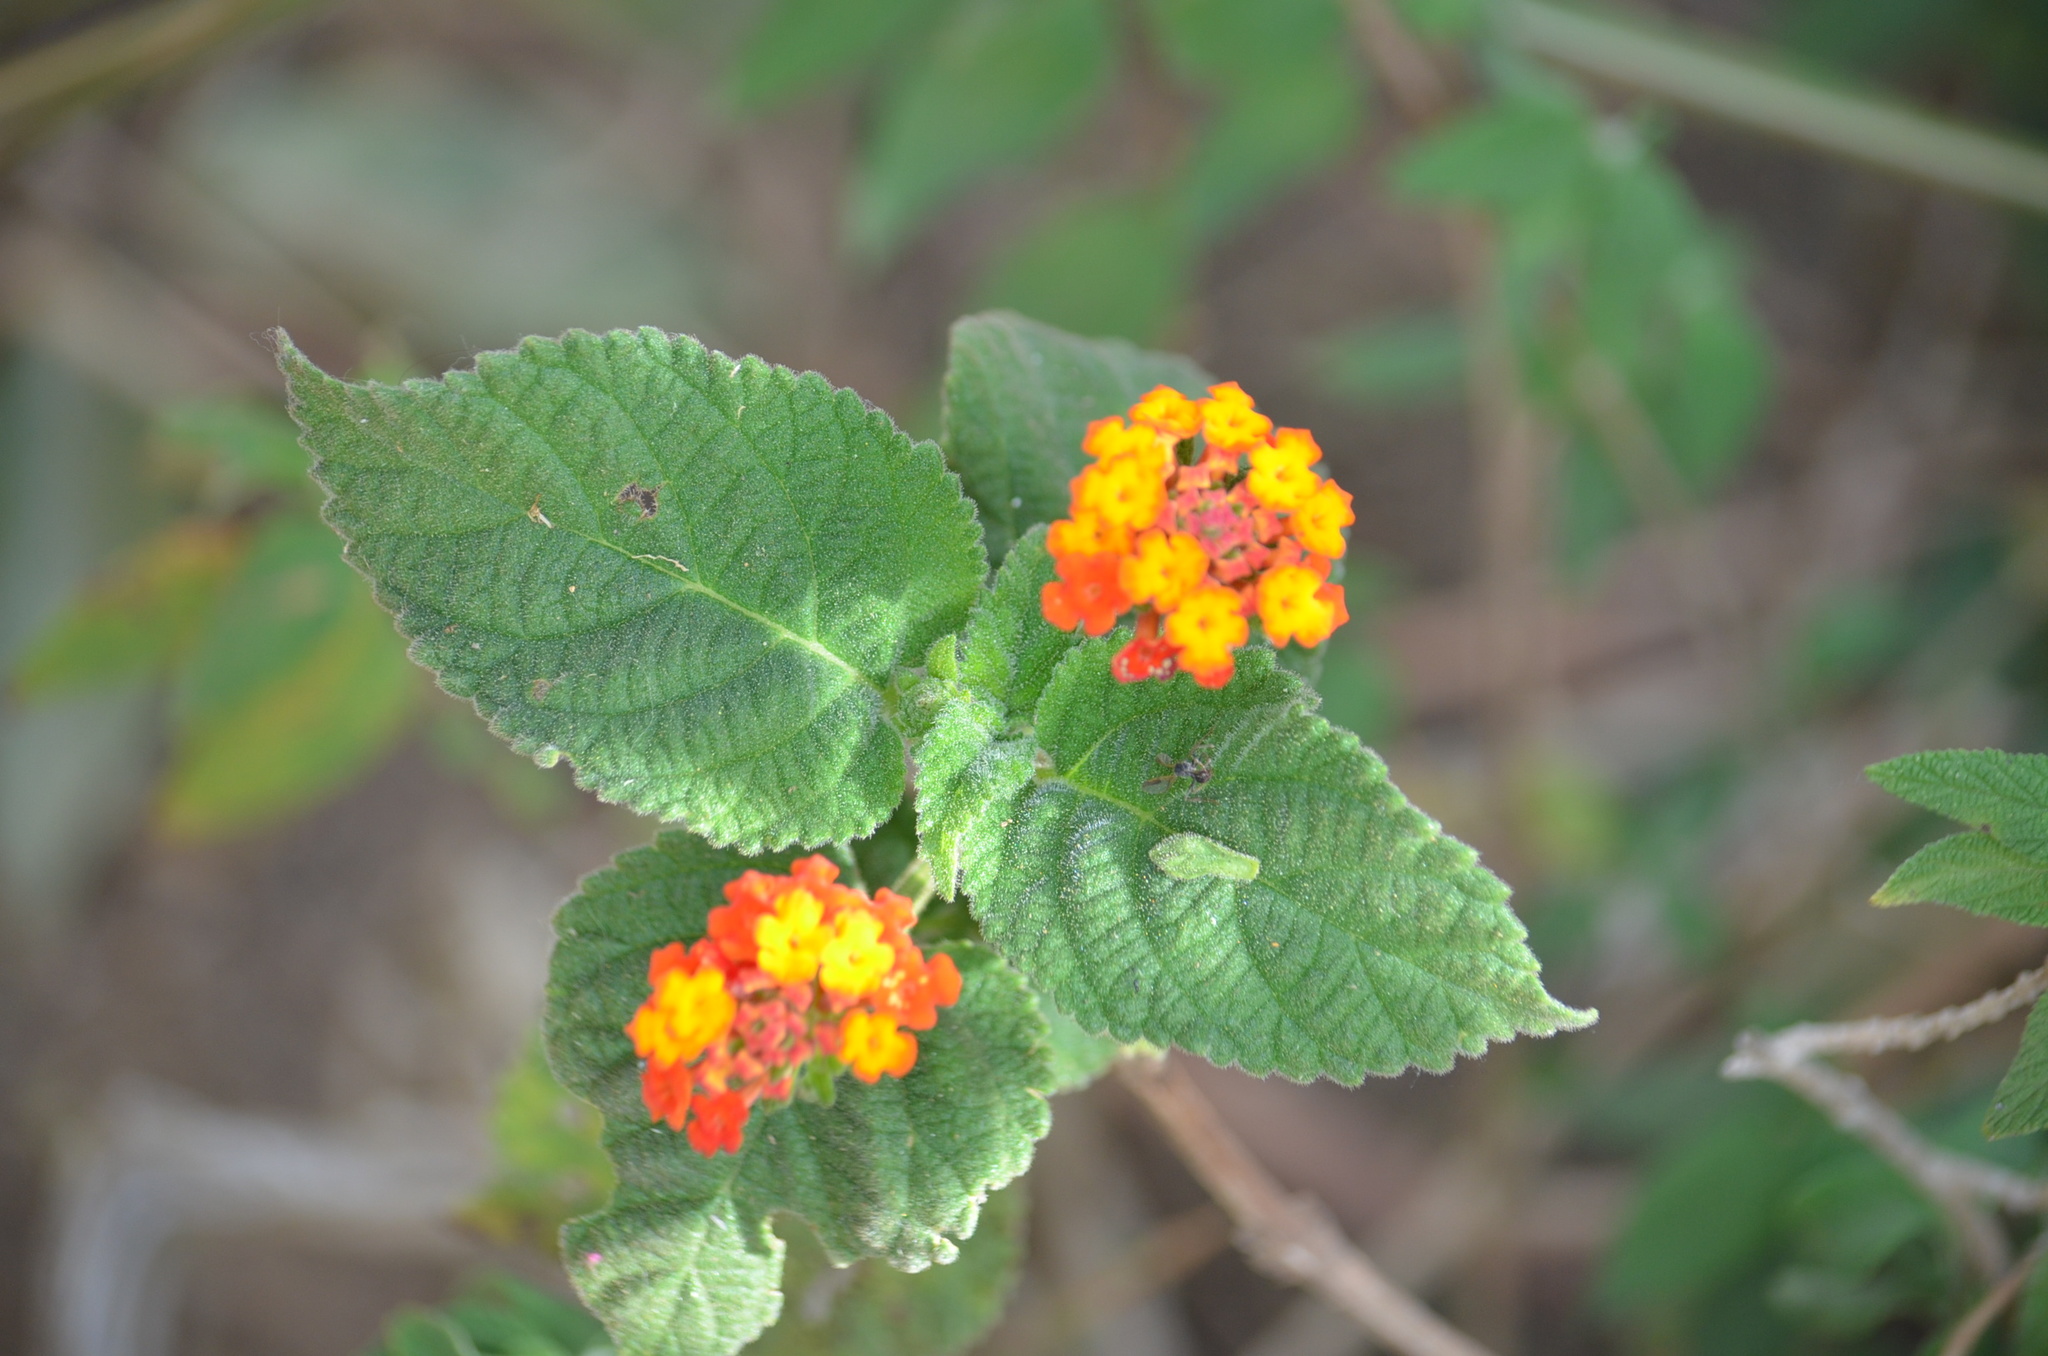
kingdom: Plantae
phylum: Tracheophyta
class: Magnoliopsida
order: Lamiales
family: Verbenaceae
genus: Lantana
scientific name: Lantana camara
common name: Lantana
